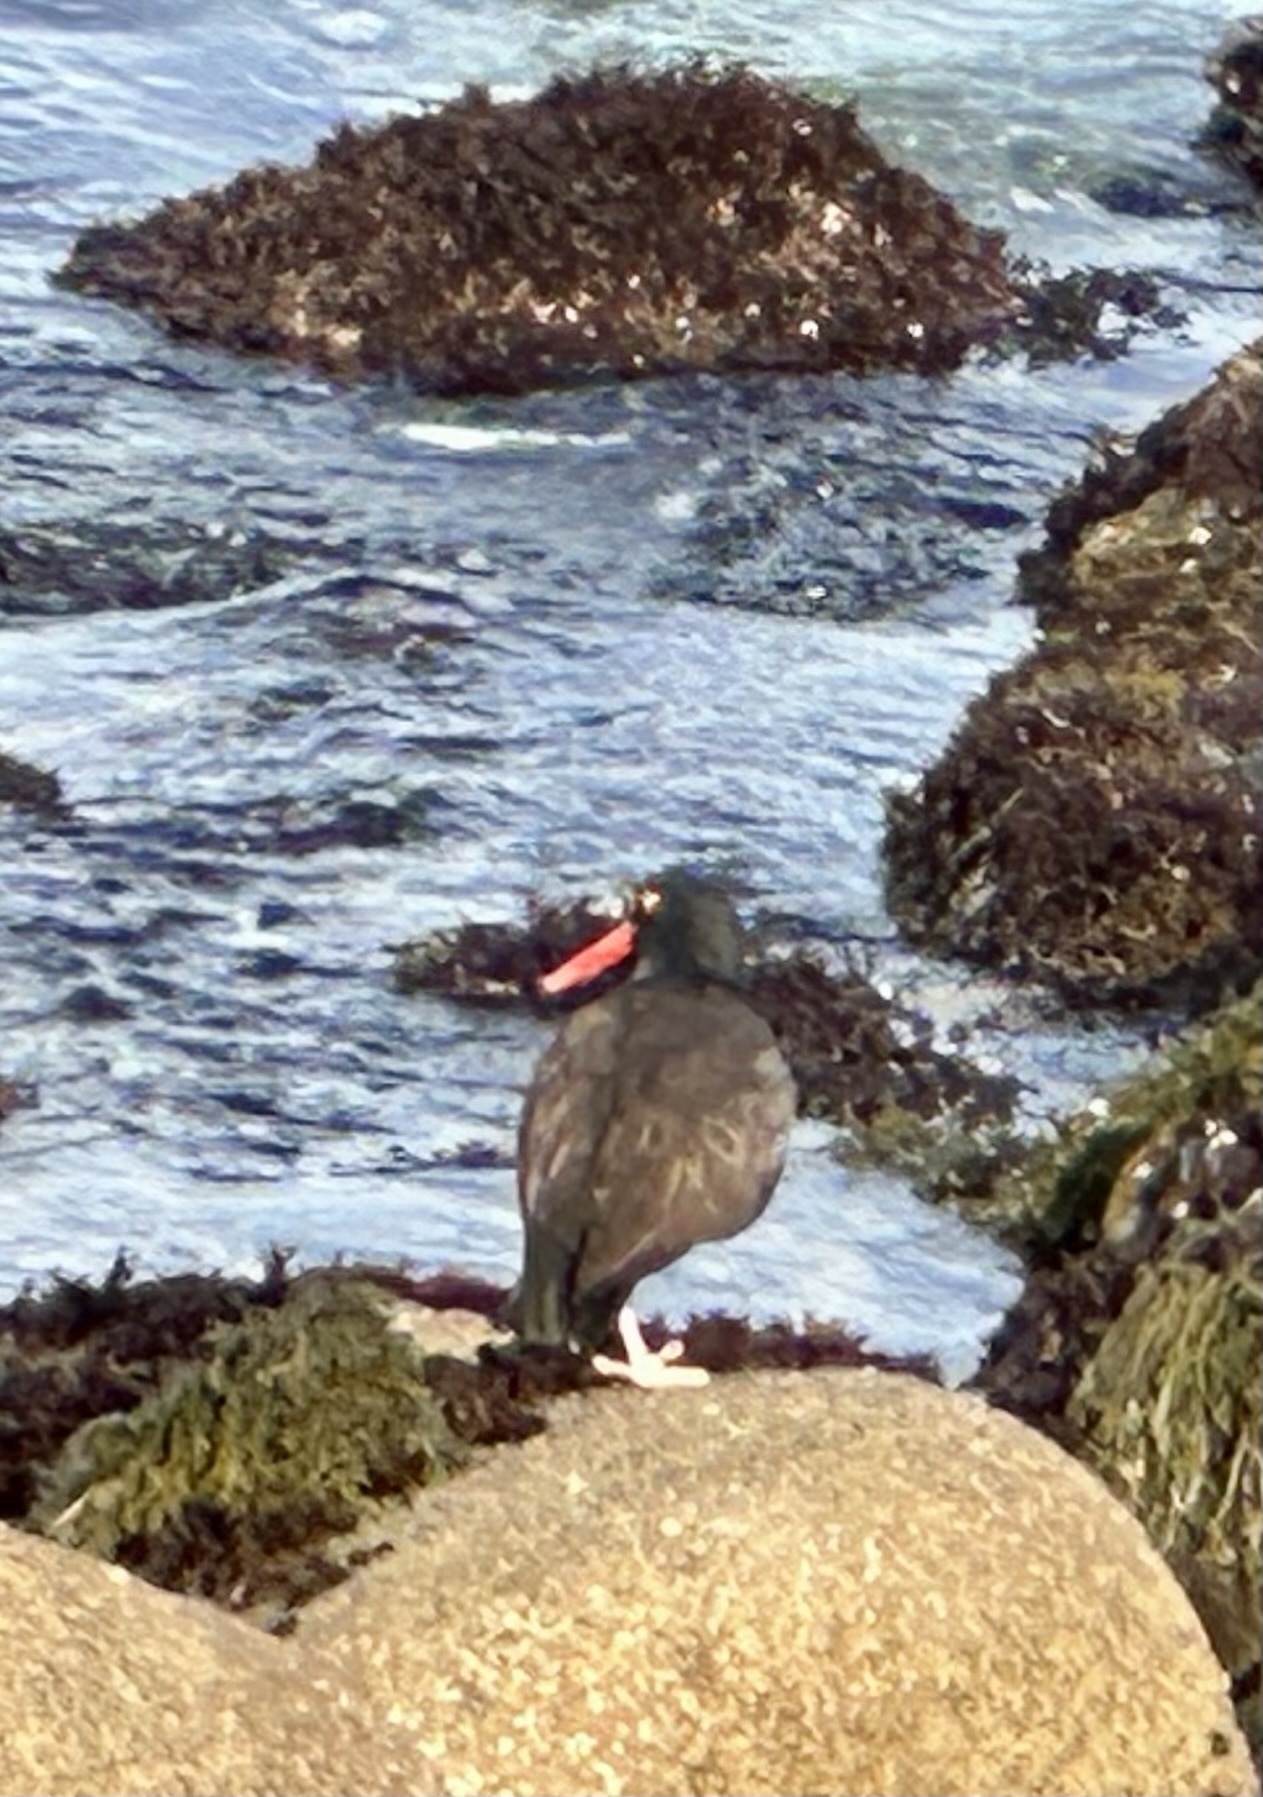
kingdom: Animalia
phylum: Chordata
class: Aves
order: Charadriiformes
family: Haematopodidae
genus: Haematopus
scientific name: Haematopus bachmani
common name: Black oystercatcher
